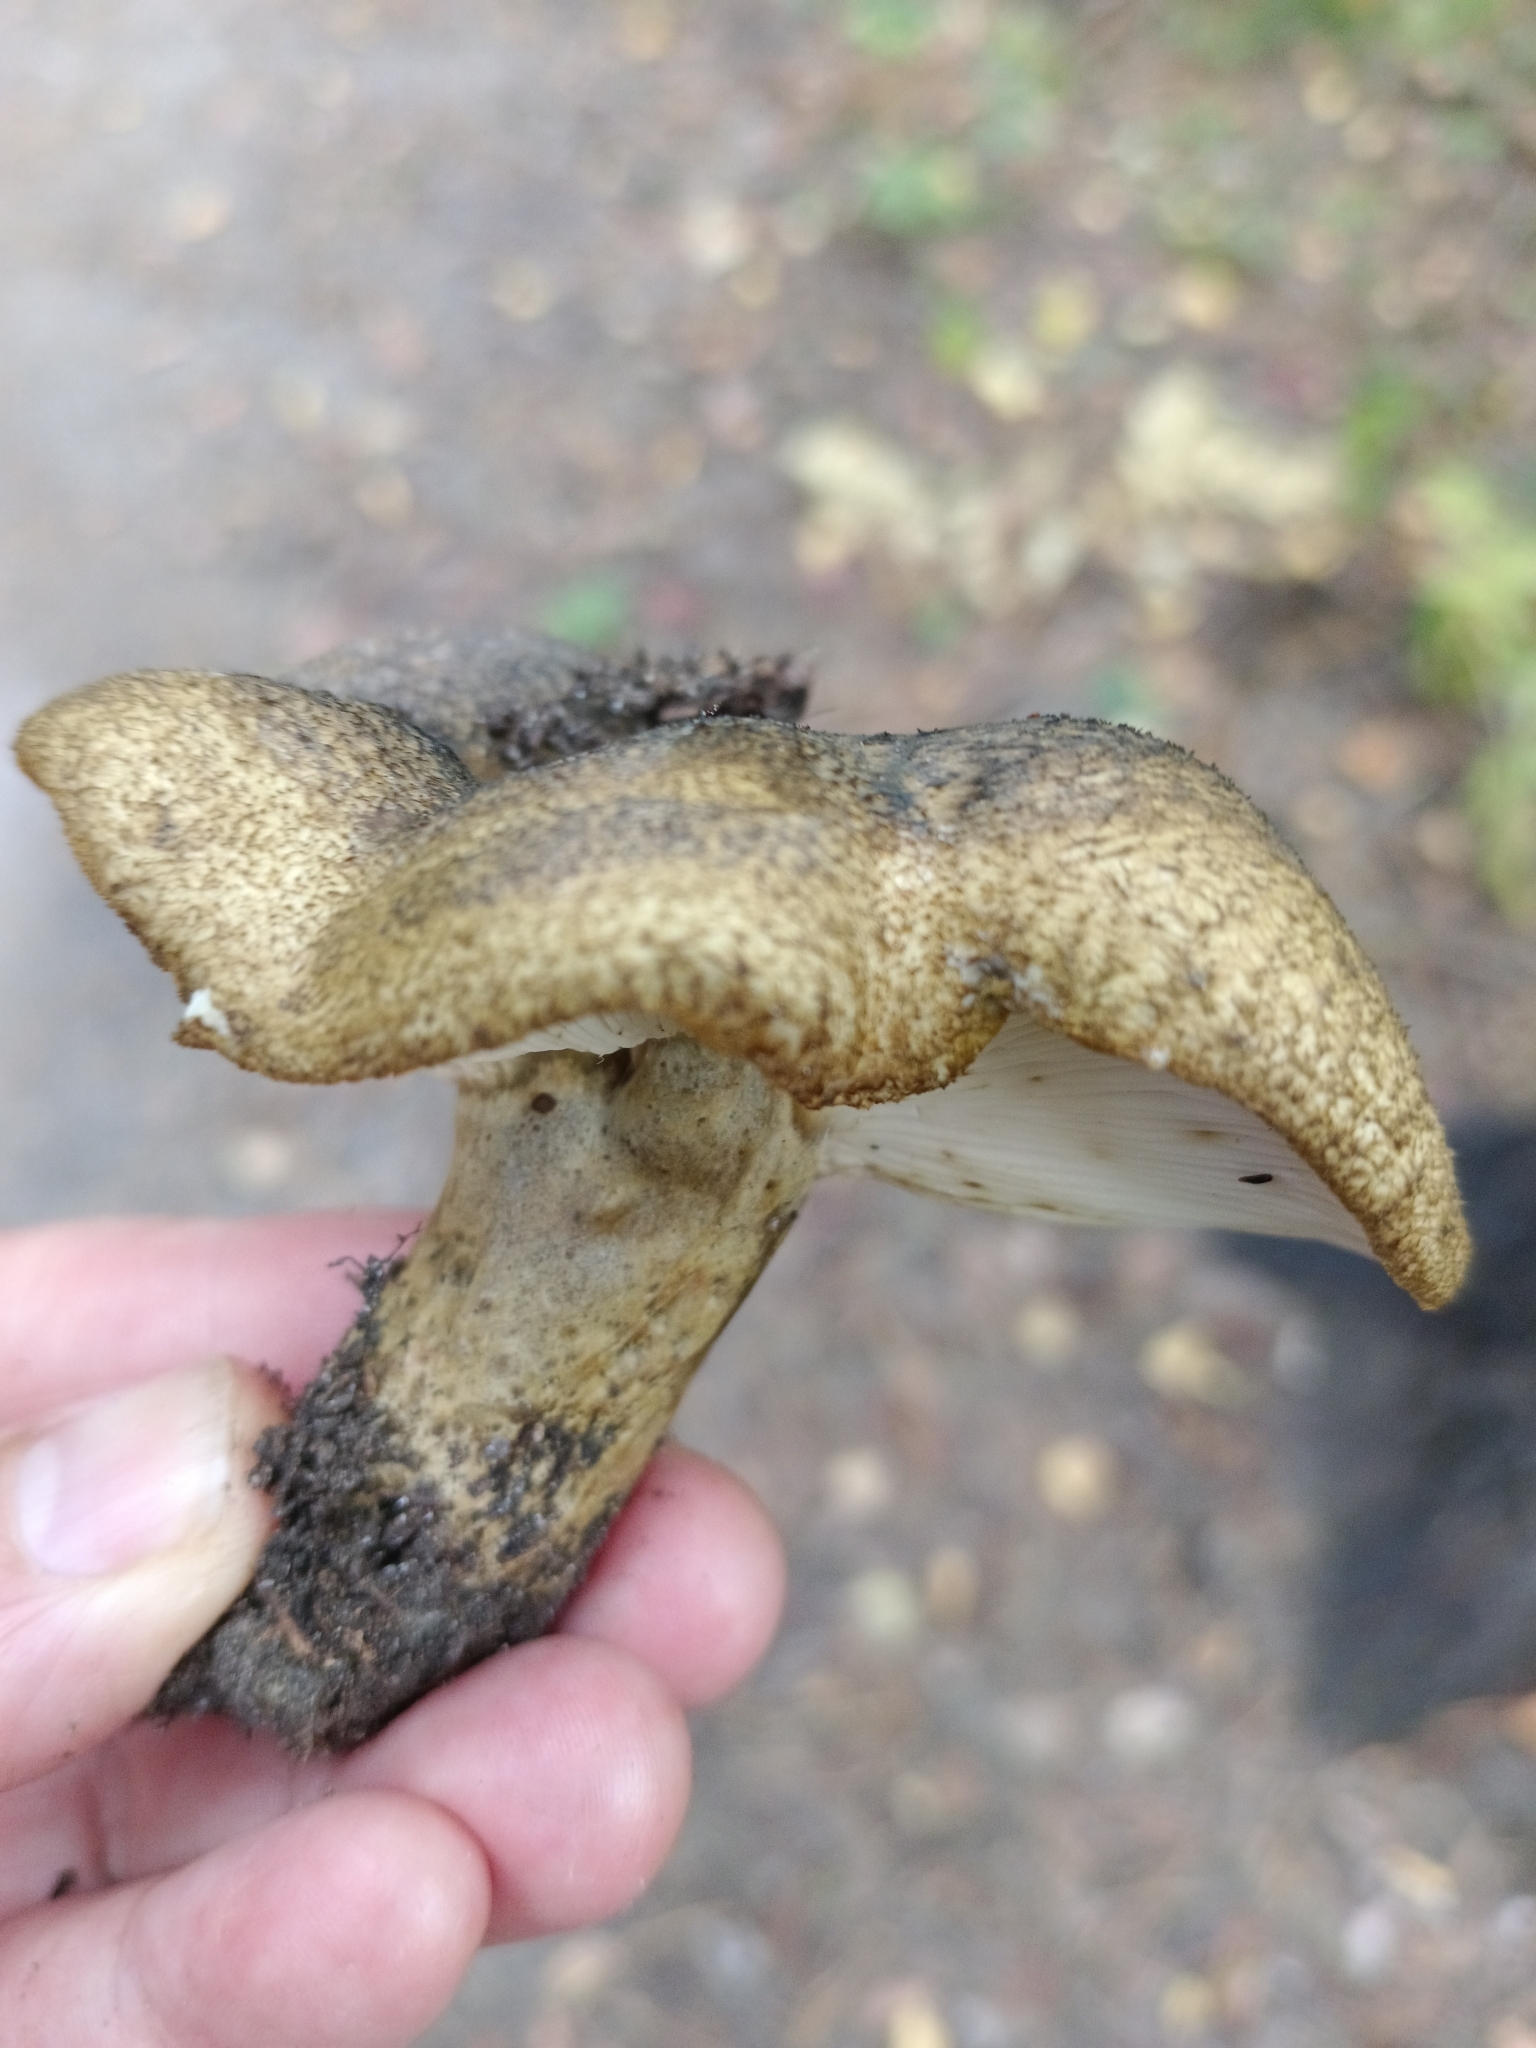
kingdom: Fungi
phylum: Basidiomycota
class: Agaricomycetes
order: Russulales
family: Russulaceae
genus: Lactarius
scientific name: Lactarius turpis
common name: Ugly milk-cap
